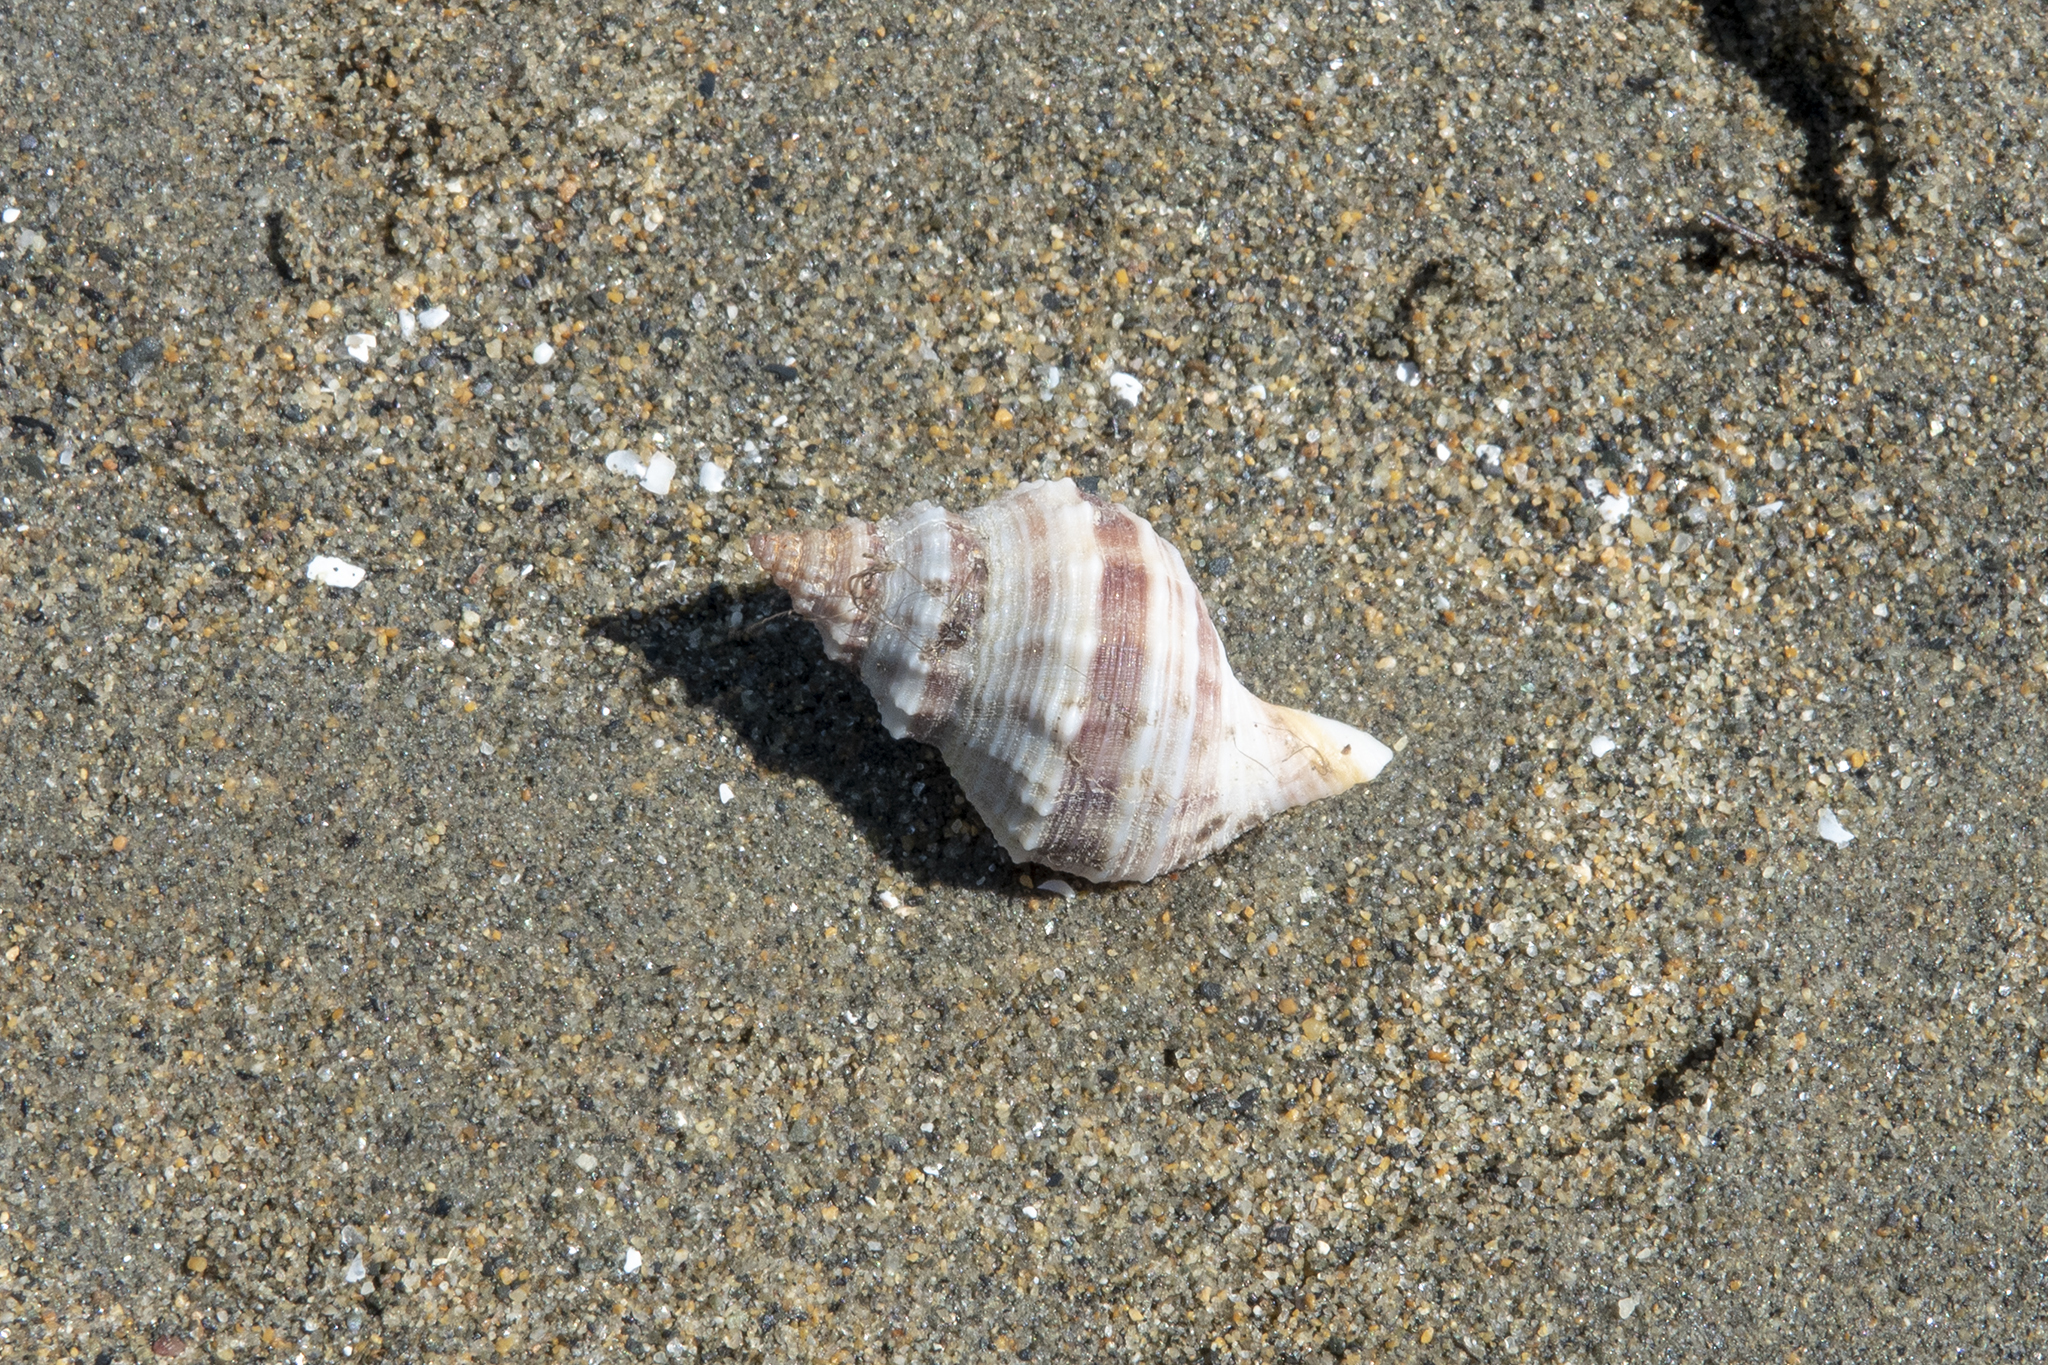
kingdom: Animalia
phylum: Mollusca
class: Gastropoda
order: Neogastropoda
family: Prosiphonidae
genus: Austrofusus
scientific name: Austrofusus glans
